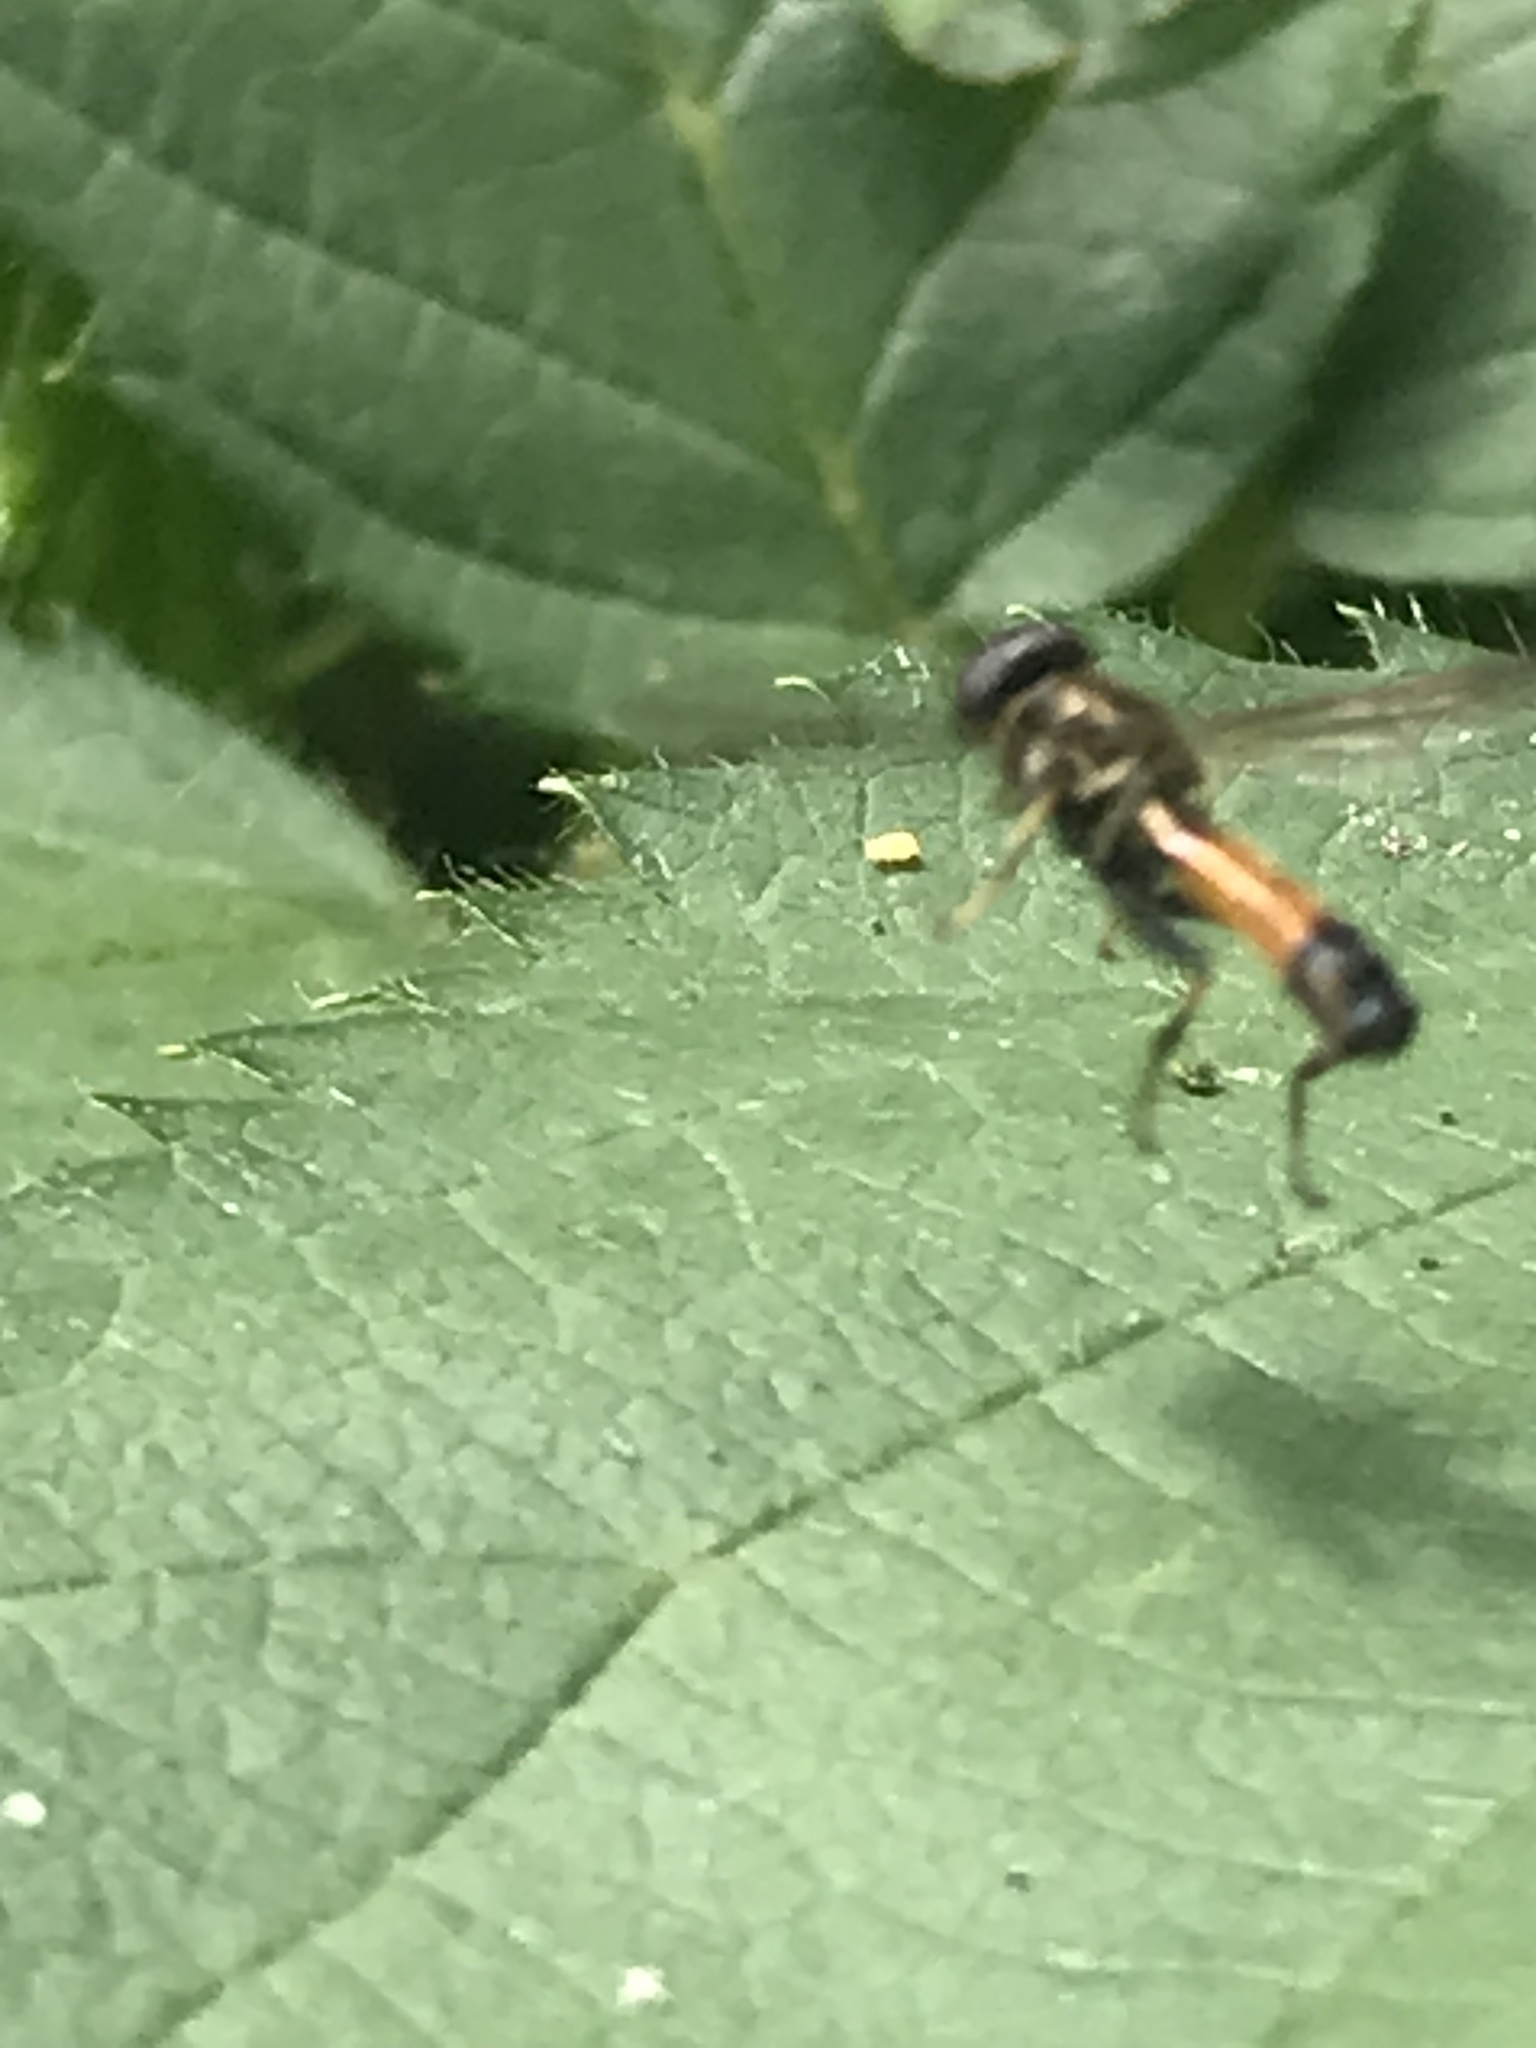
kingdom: Animalia
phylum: Arthropoda
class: Insecta
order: Diptera
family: Syrphidae
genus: Xylota
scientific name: Xylota segnis
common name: Brown-toed forest fly
